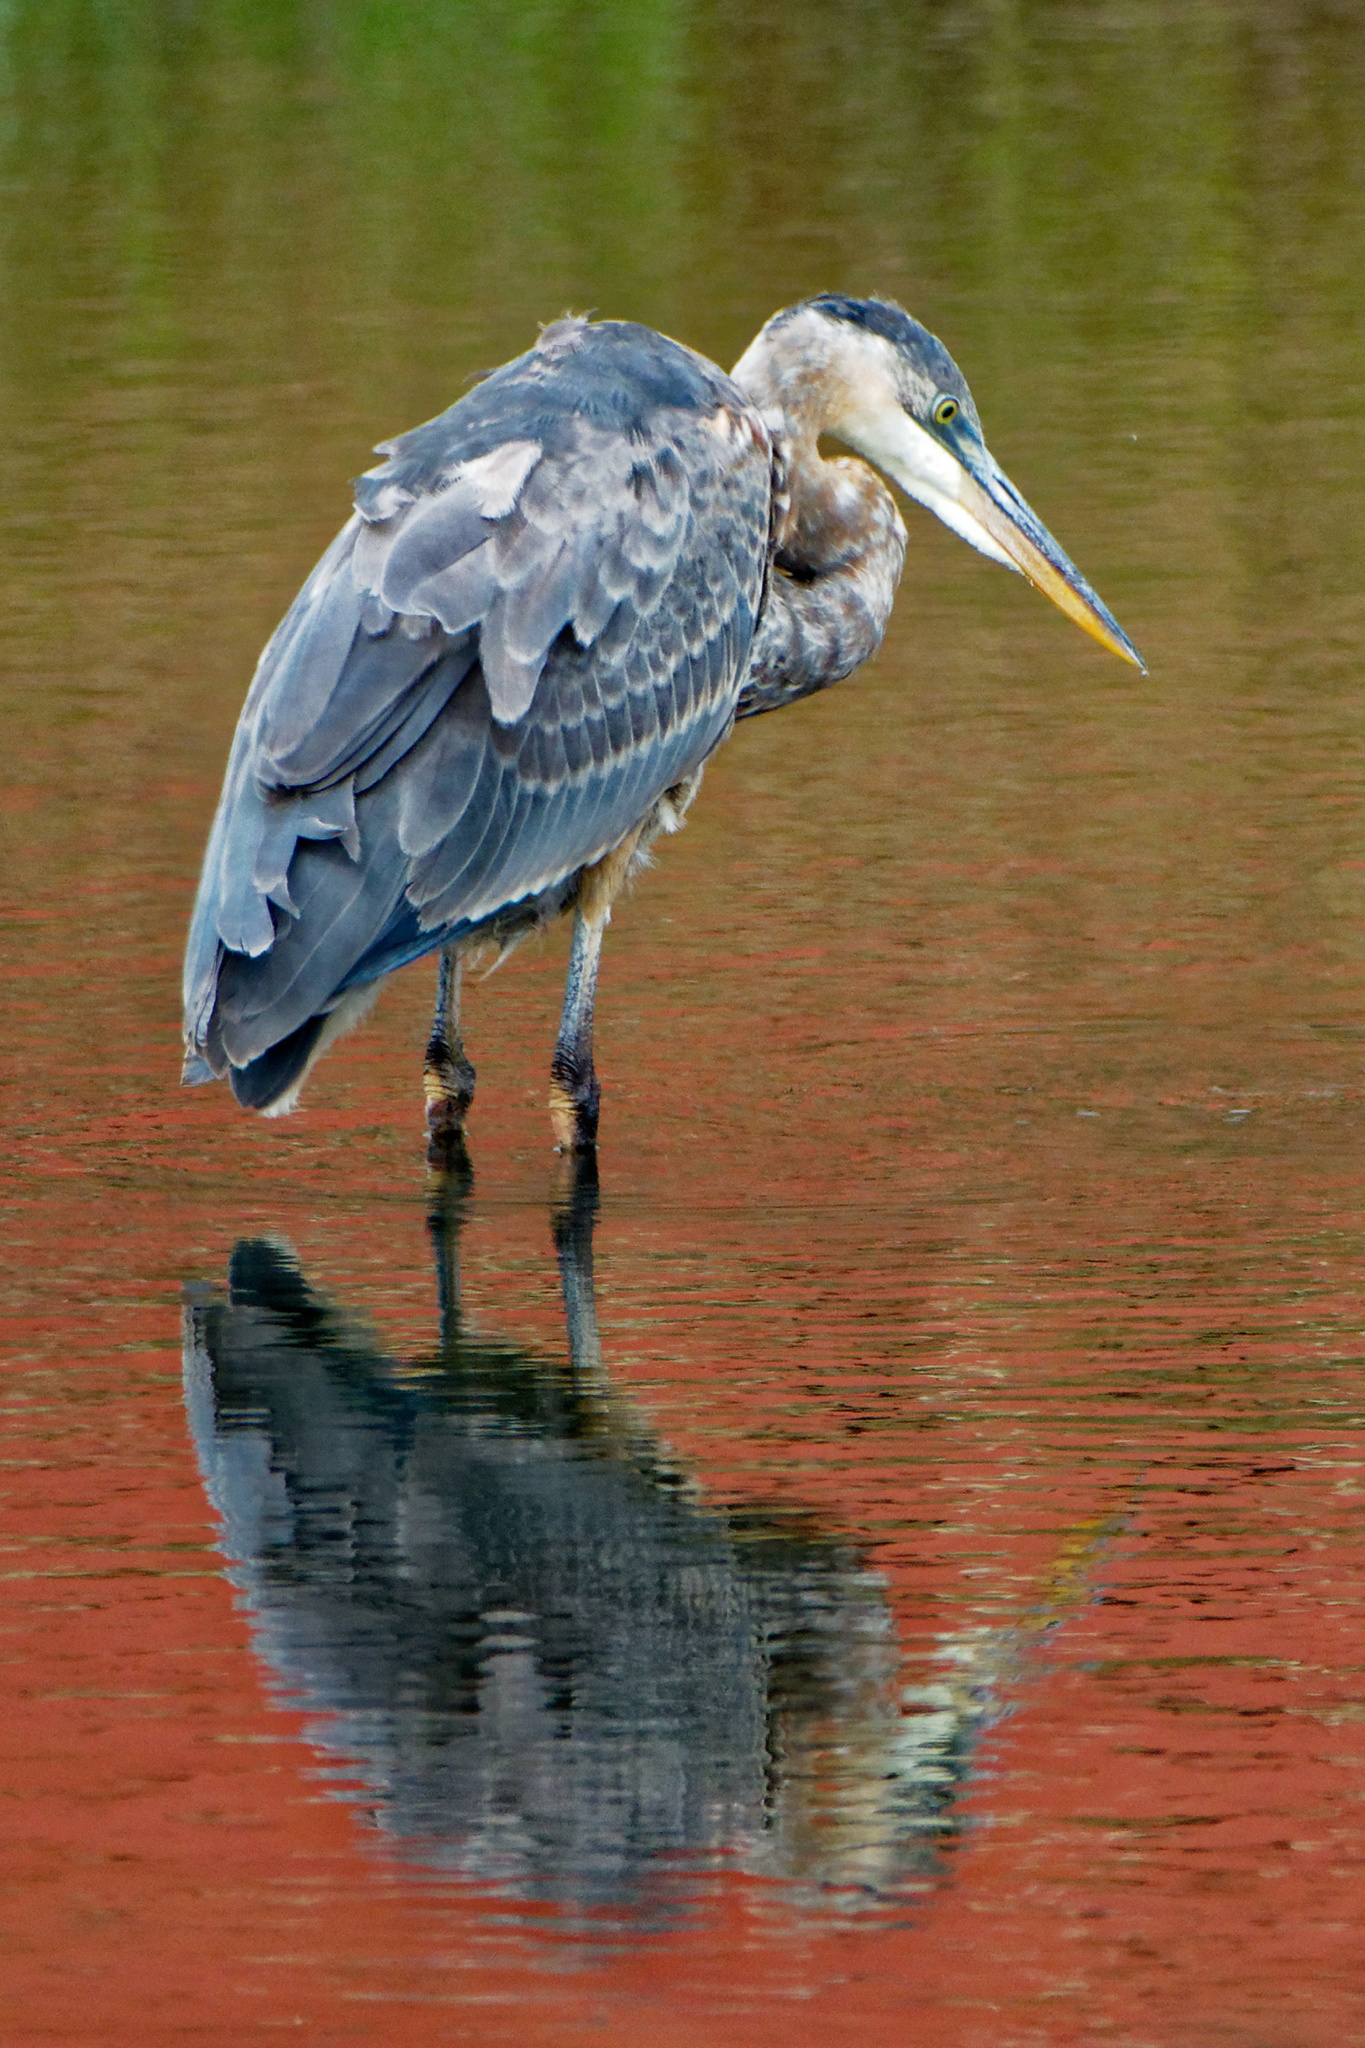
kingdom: Animalia
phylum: Chordata
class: Aves
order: Pelecaniformes
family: Ardeidae
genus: Ardea
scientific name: Ardea herodias
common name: Great blue heron
